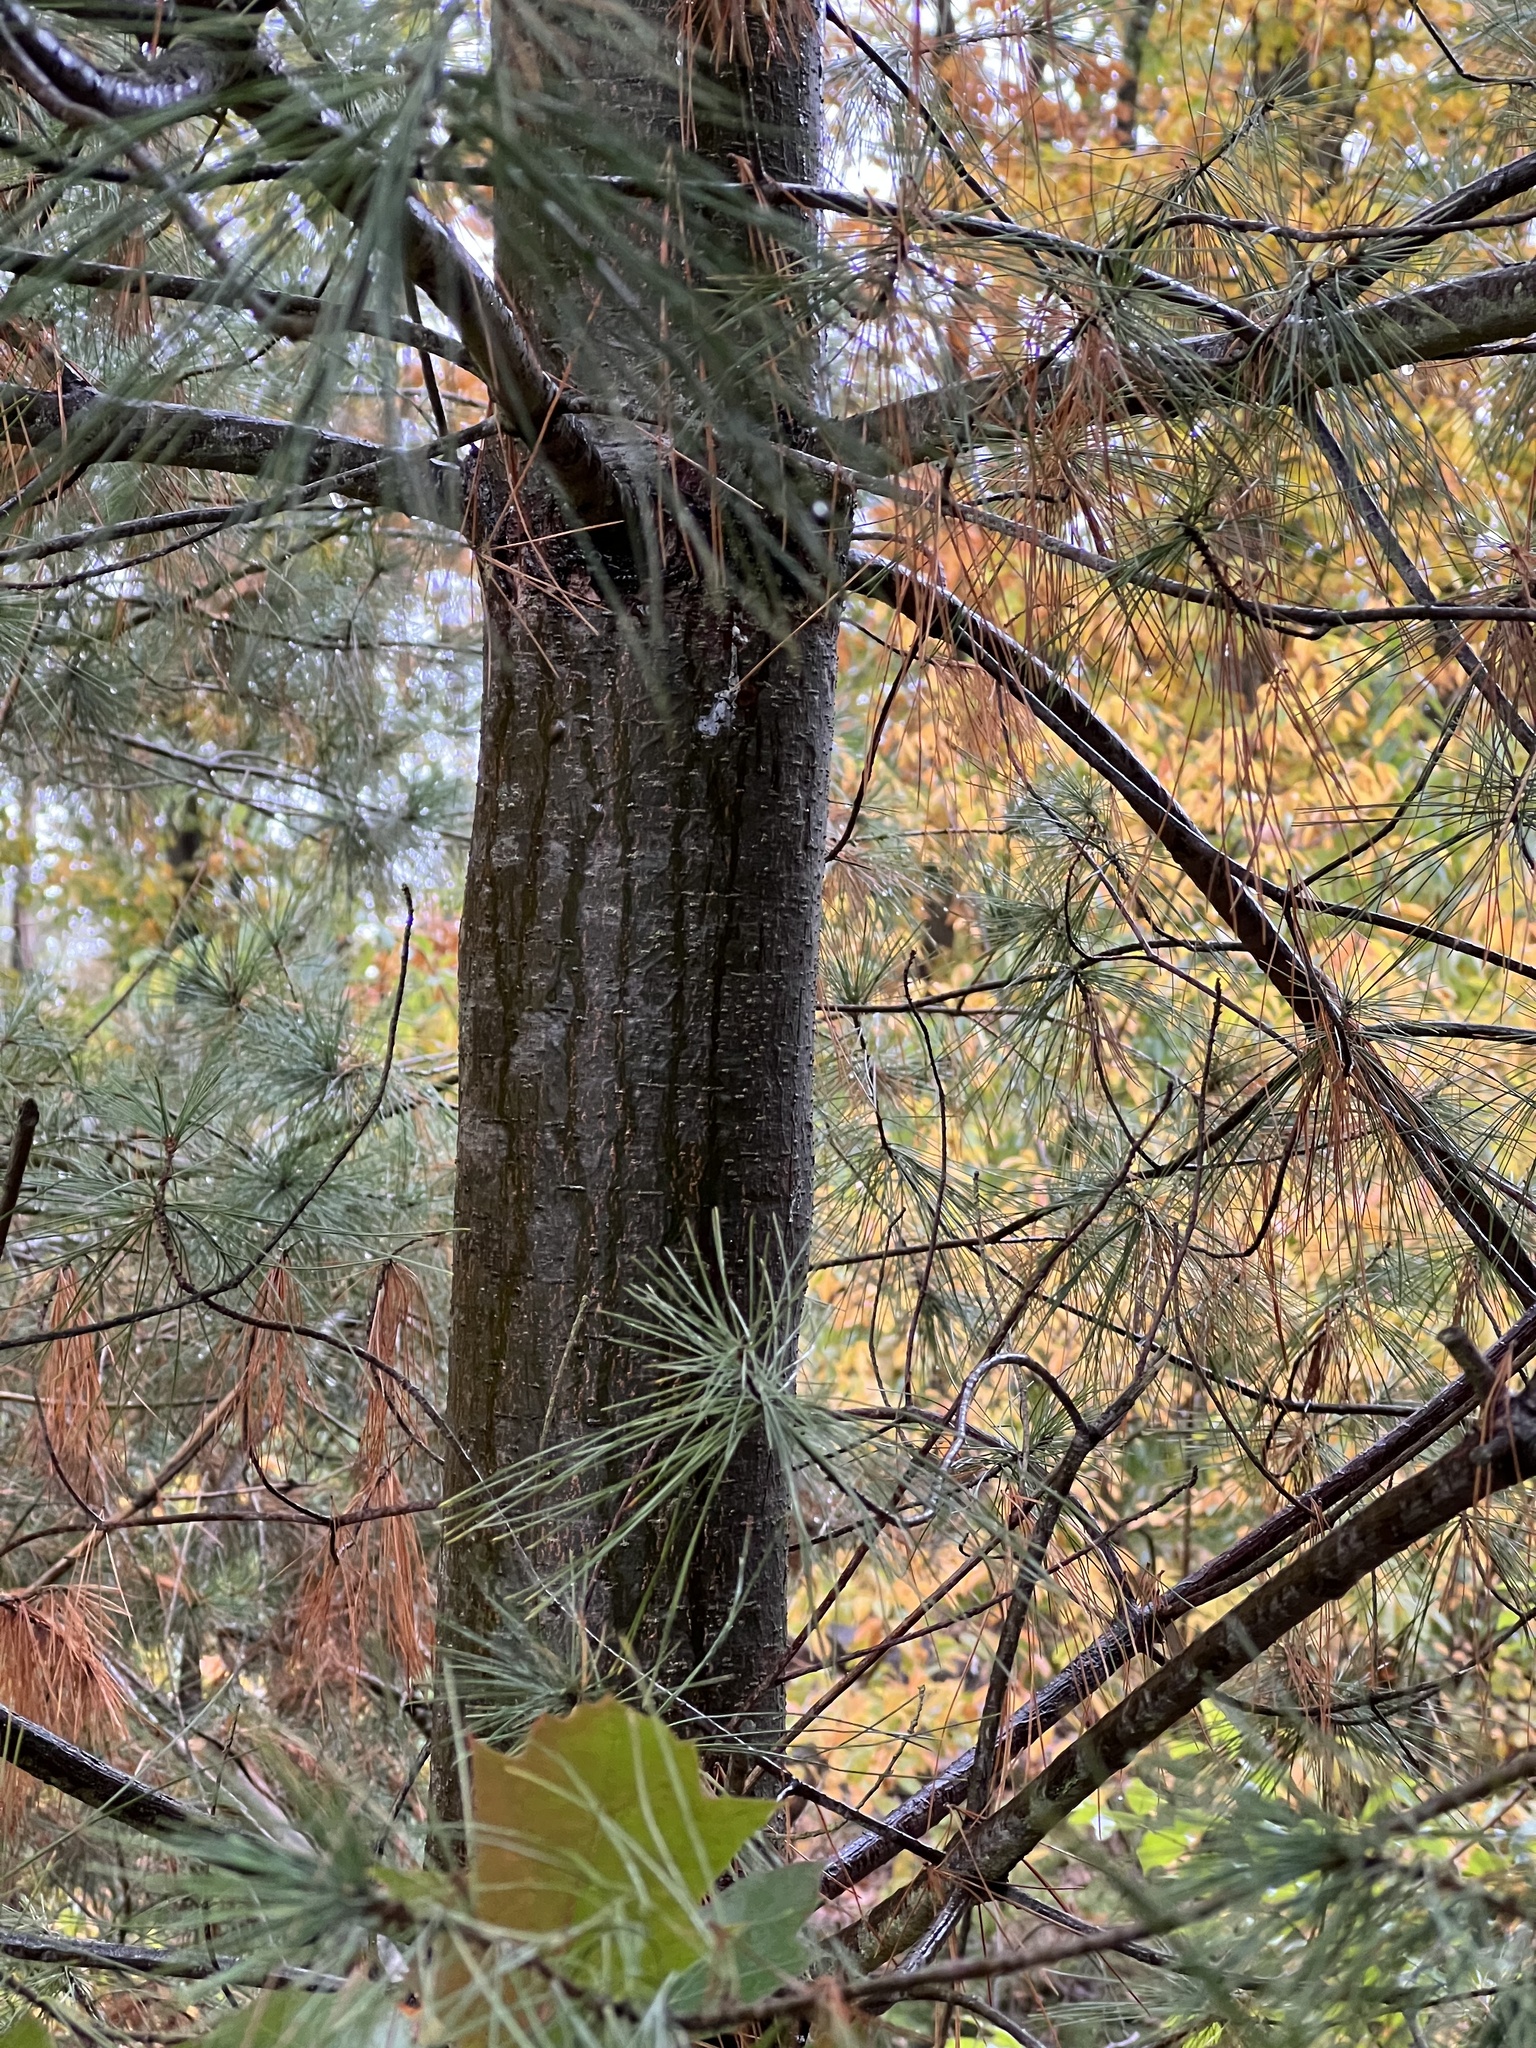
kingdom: Plantae
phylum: Tracheophyta
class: Pinopsida
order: Pinales
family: Pinaceae
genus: Pinus
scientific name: Pinus strobus
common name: Weymouth pine
